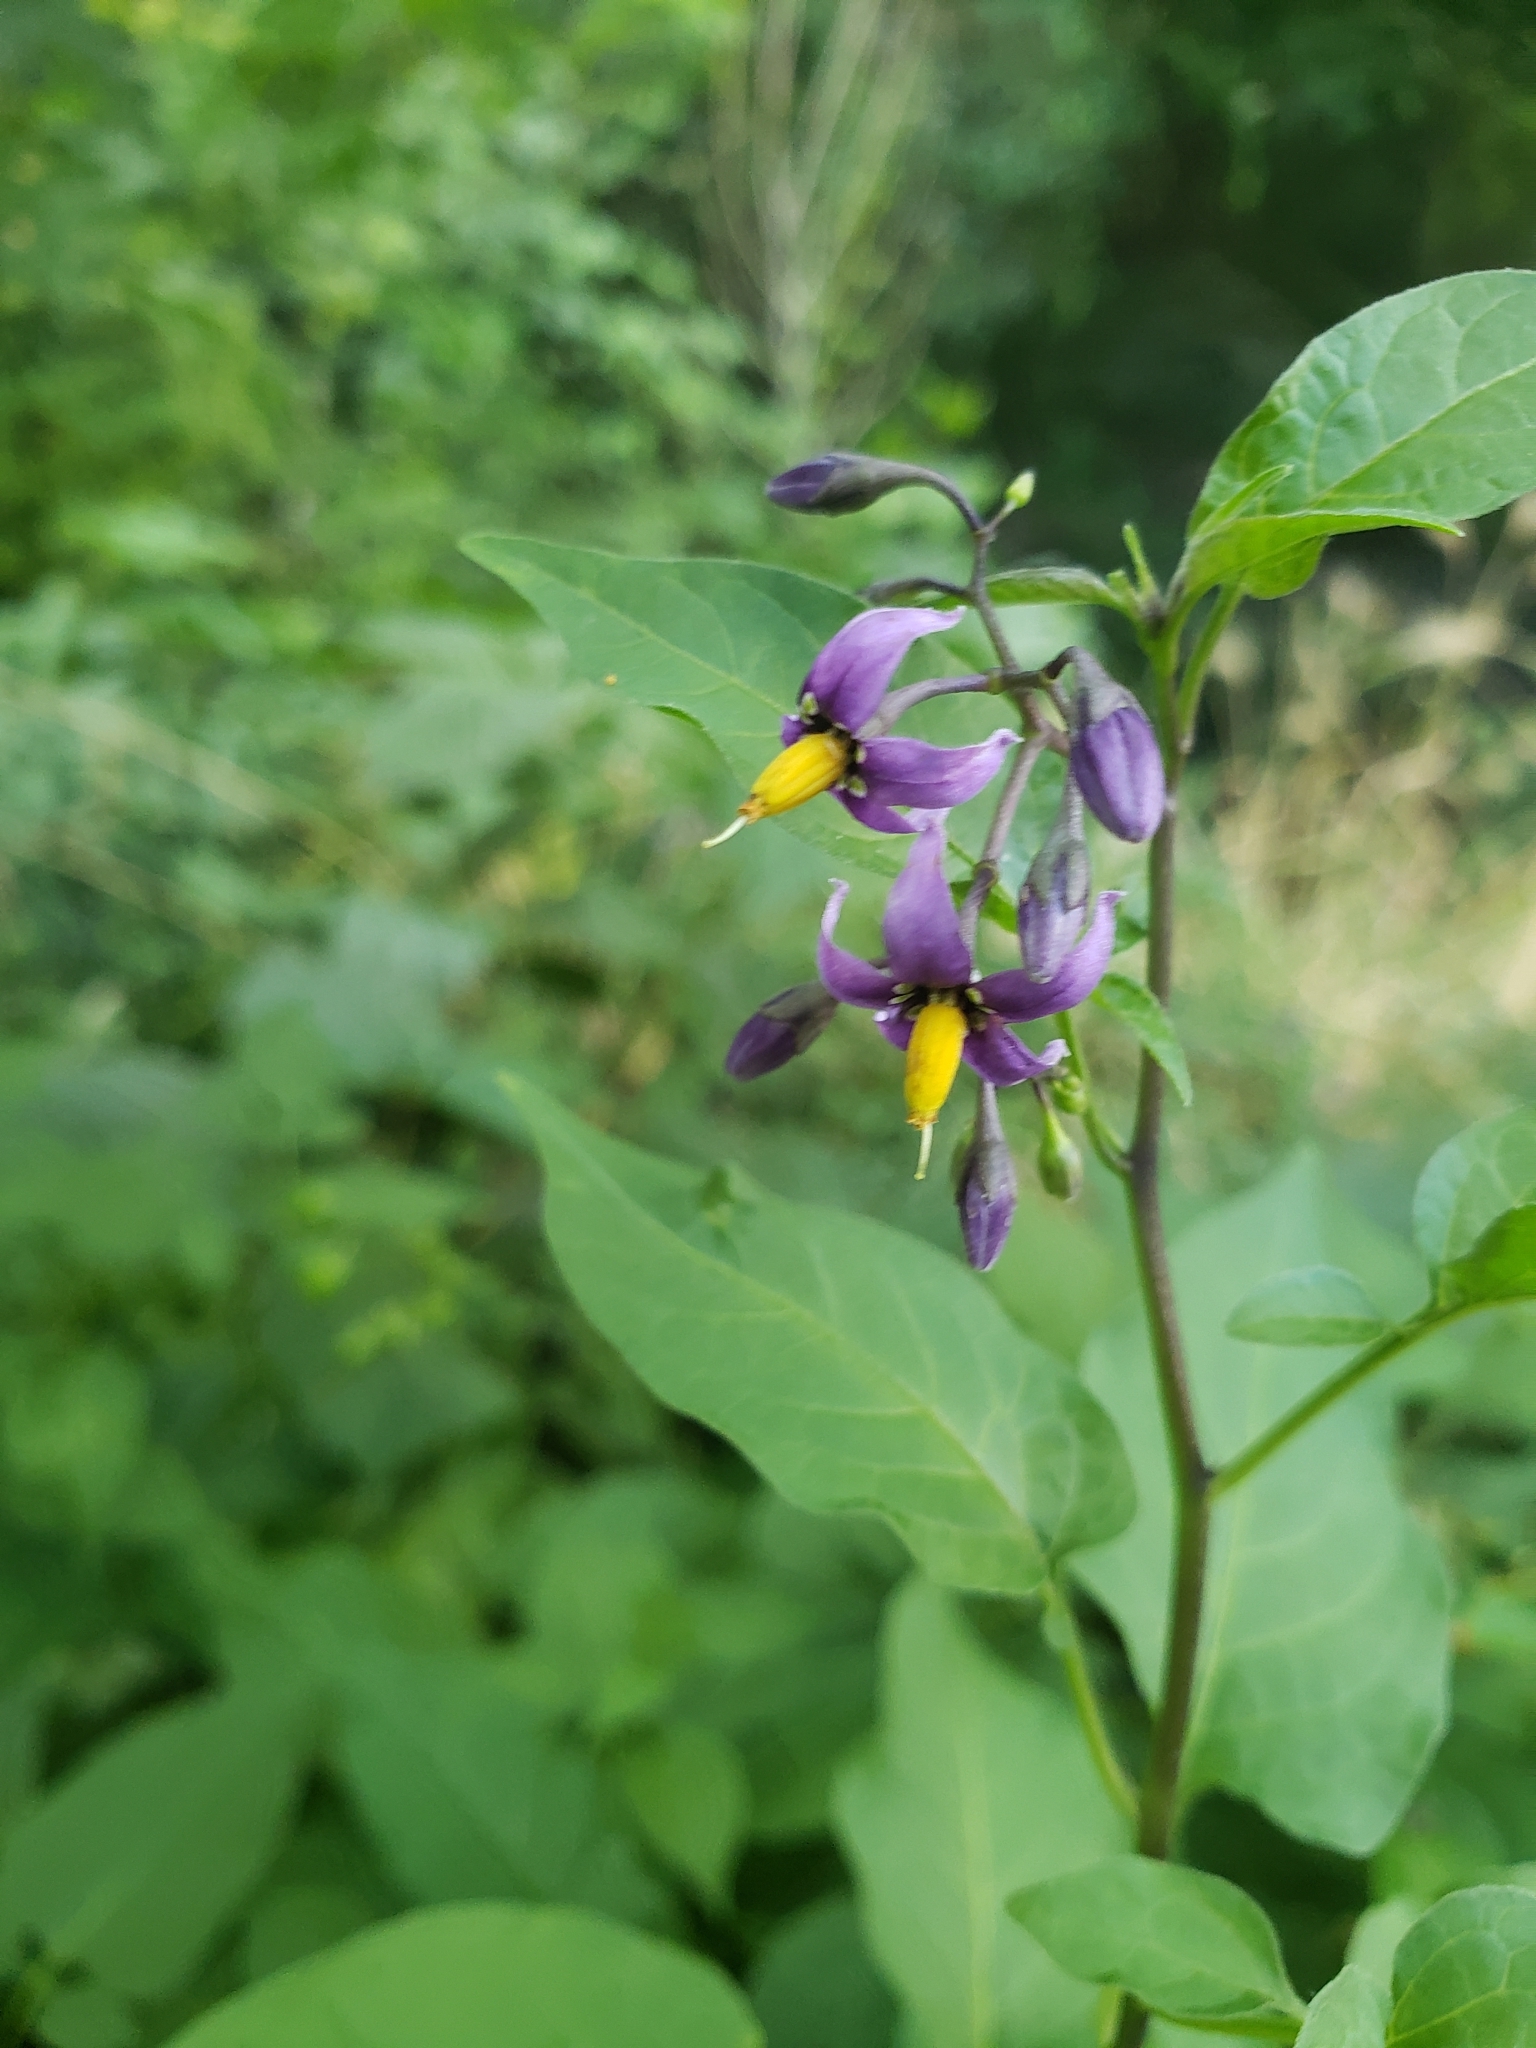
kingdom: Plantae
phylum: Tracheophyta
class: Magnoliopsida
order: Solanales
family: Solanaceae
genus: Solanum
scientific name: Solanum dulcamara
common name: Climbing nightshade
